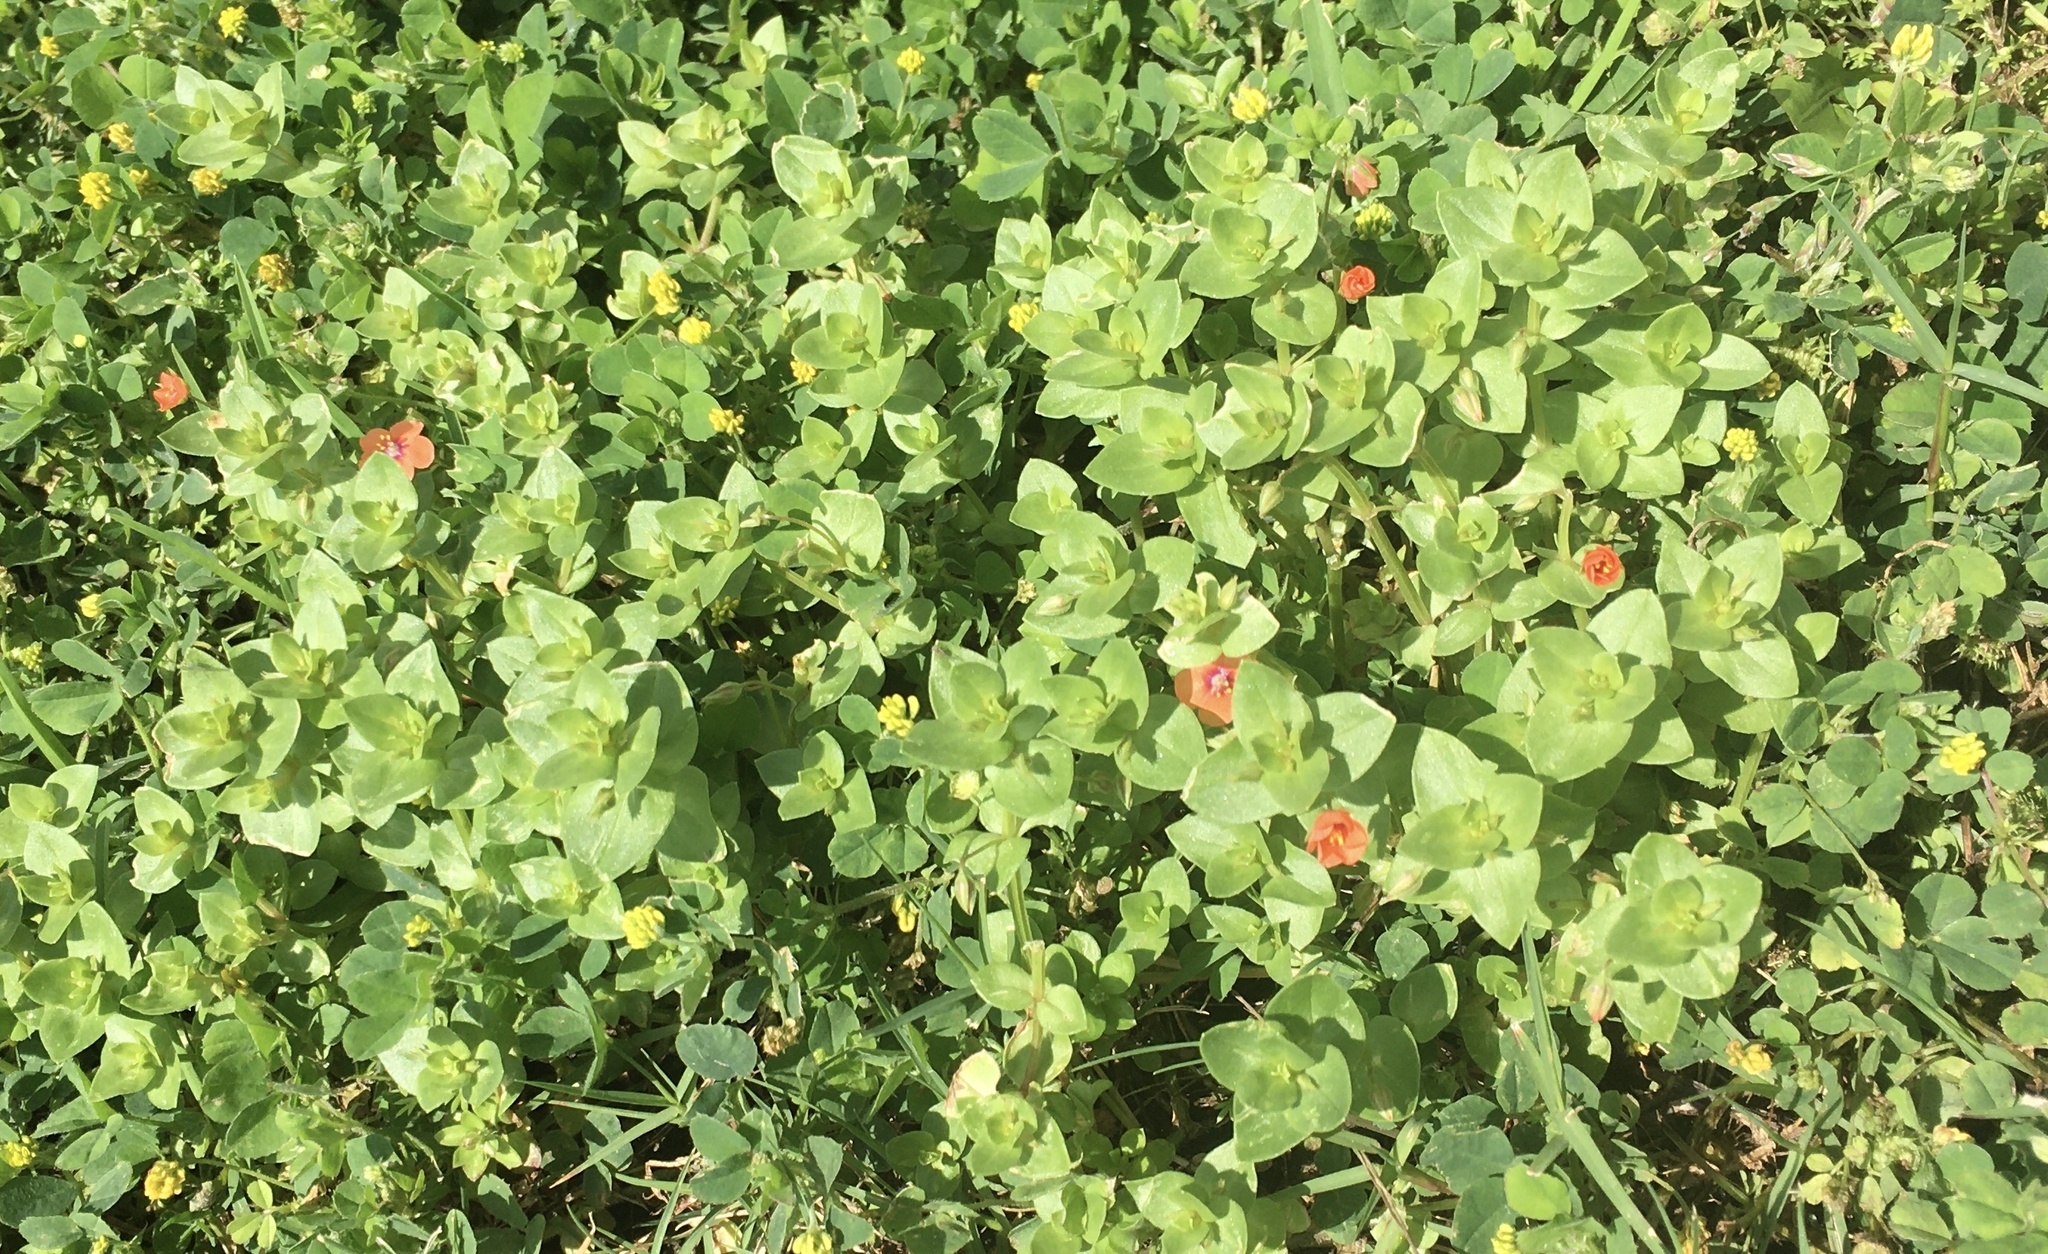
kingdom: Plantae
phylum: Tracheophyta
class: Magnoliopsida
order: Ericales
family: Primulaceae
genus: Lysimachia
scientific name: Lysimachia arvensis
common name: Scarlet pimpernel
